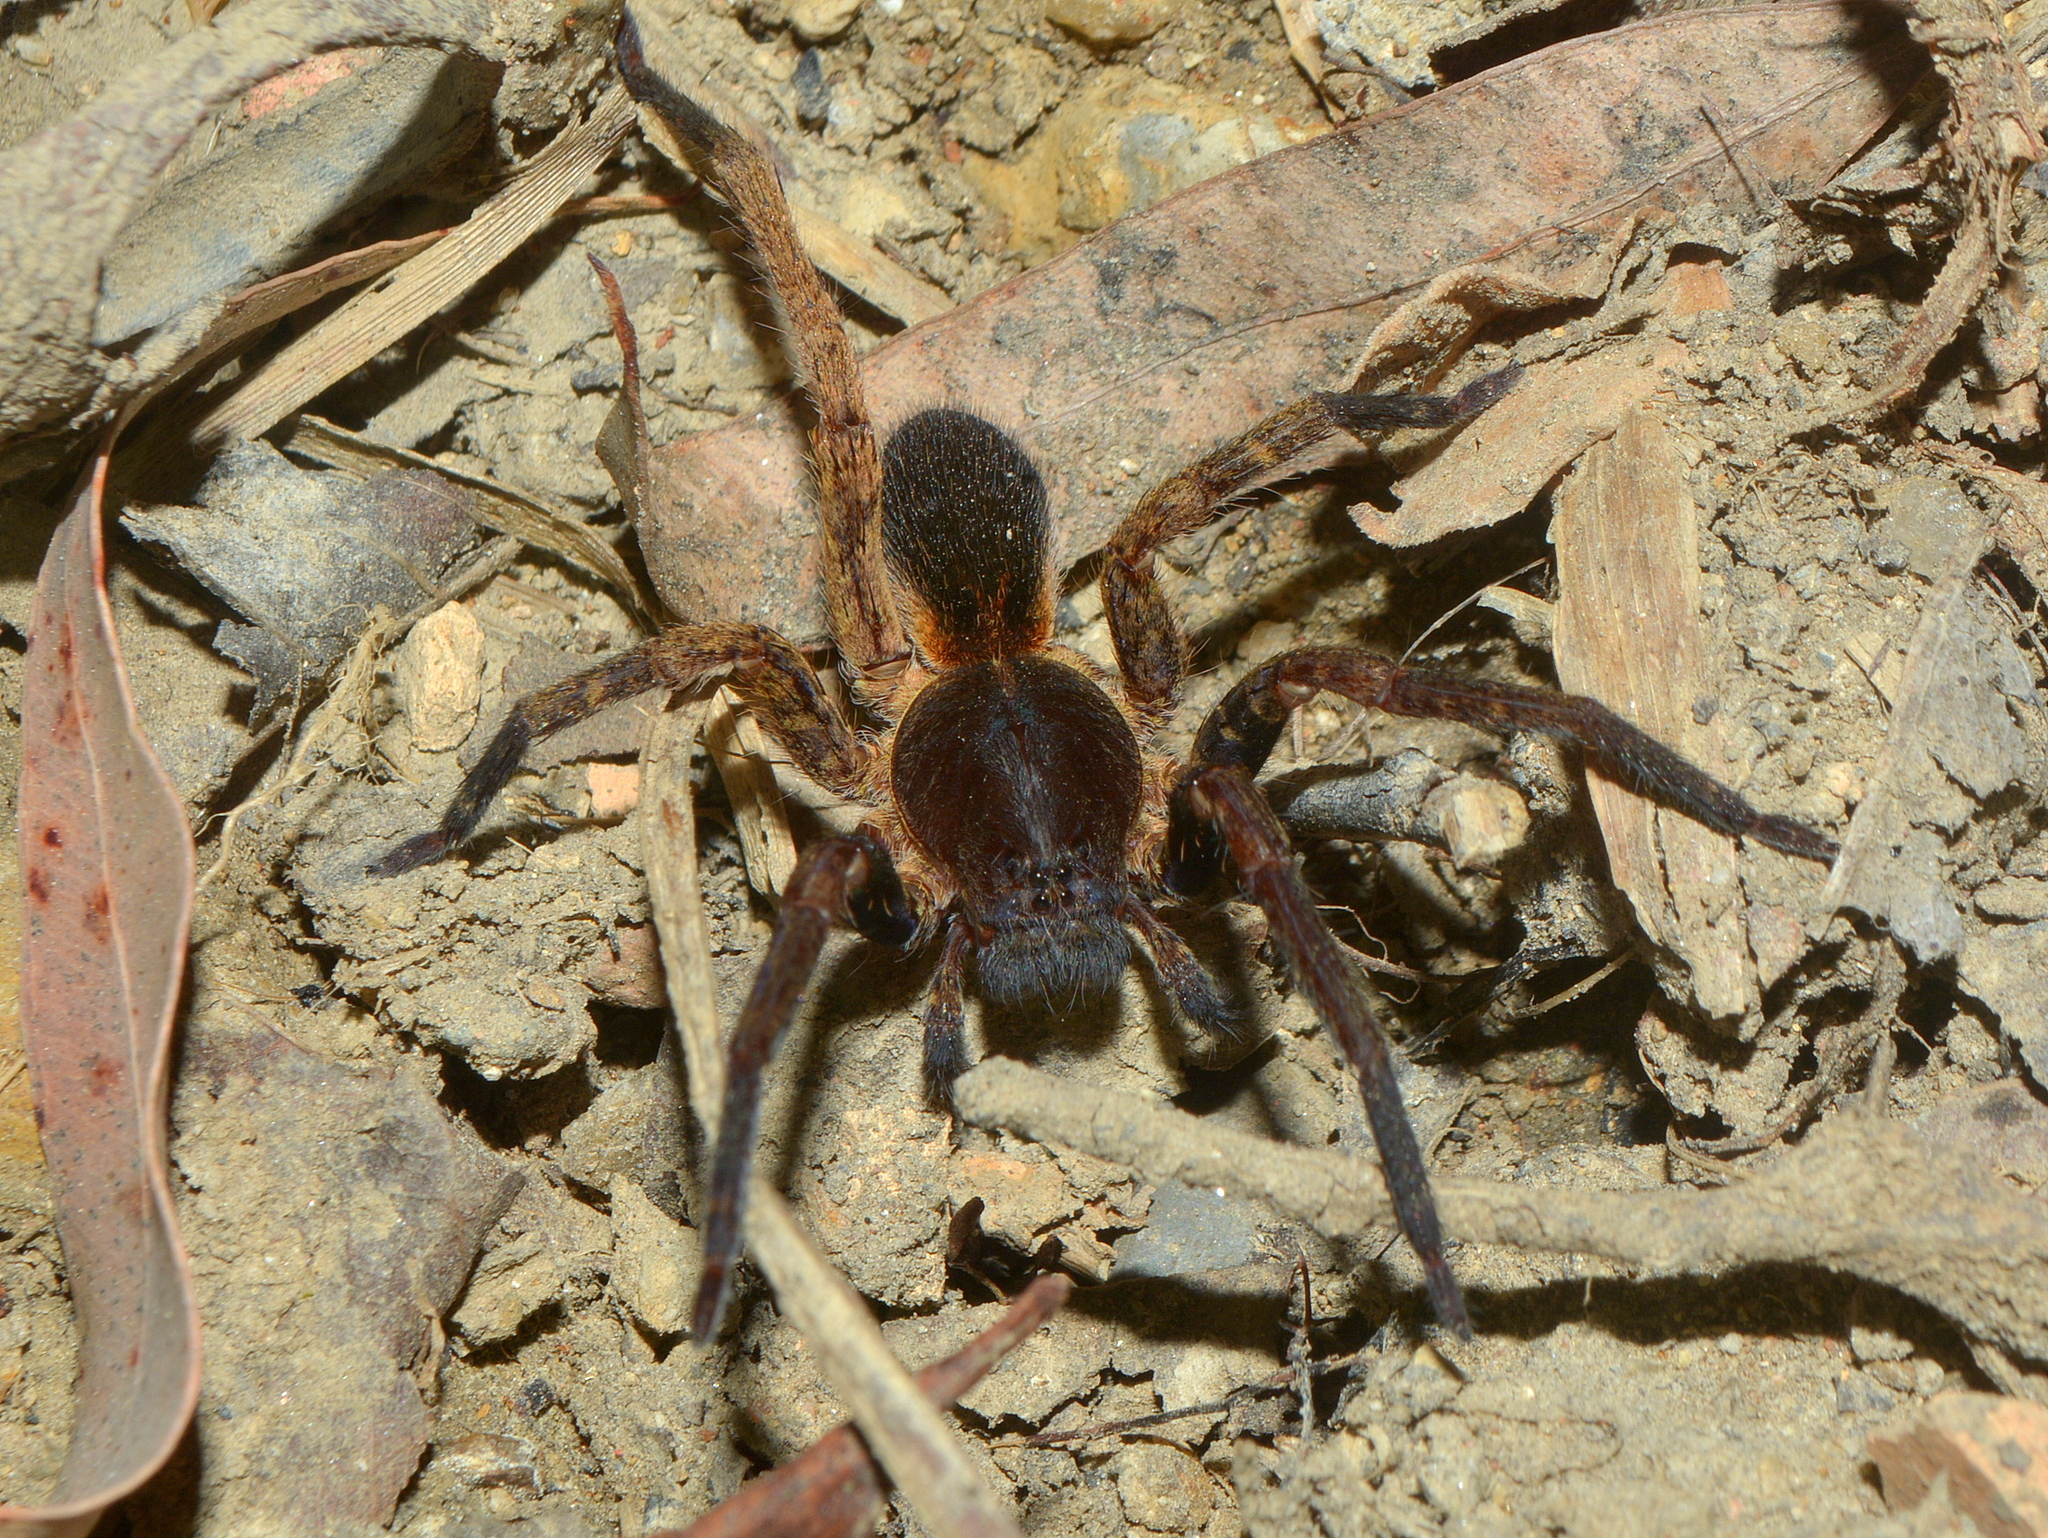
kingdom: Animalia
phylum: Arthropoda
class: Arachnida
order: Araneae
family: Ctenidae
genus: Ctenus
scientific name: Ctenus medius
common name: Wandering spiders
